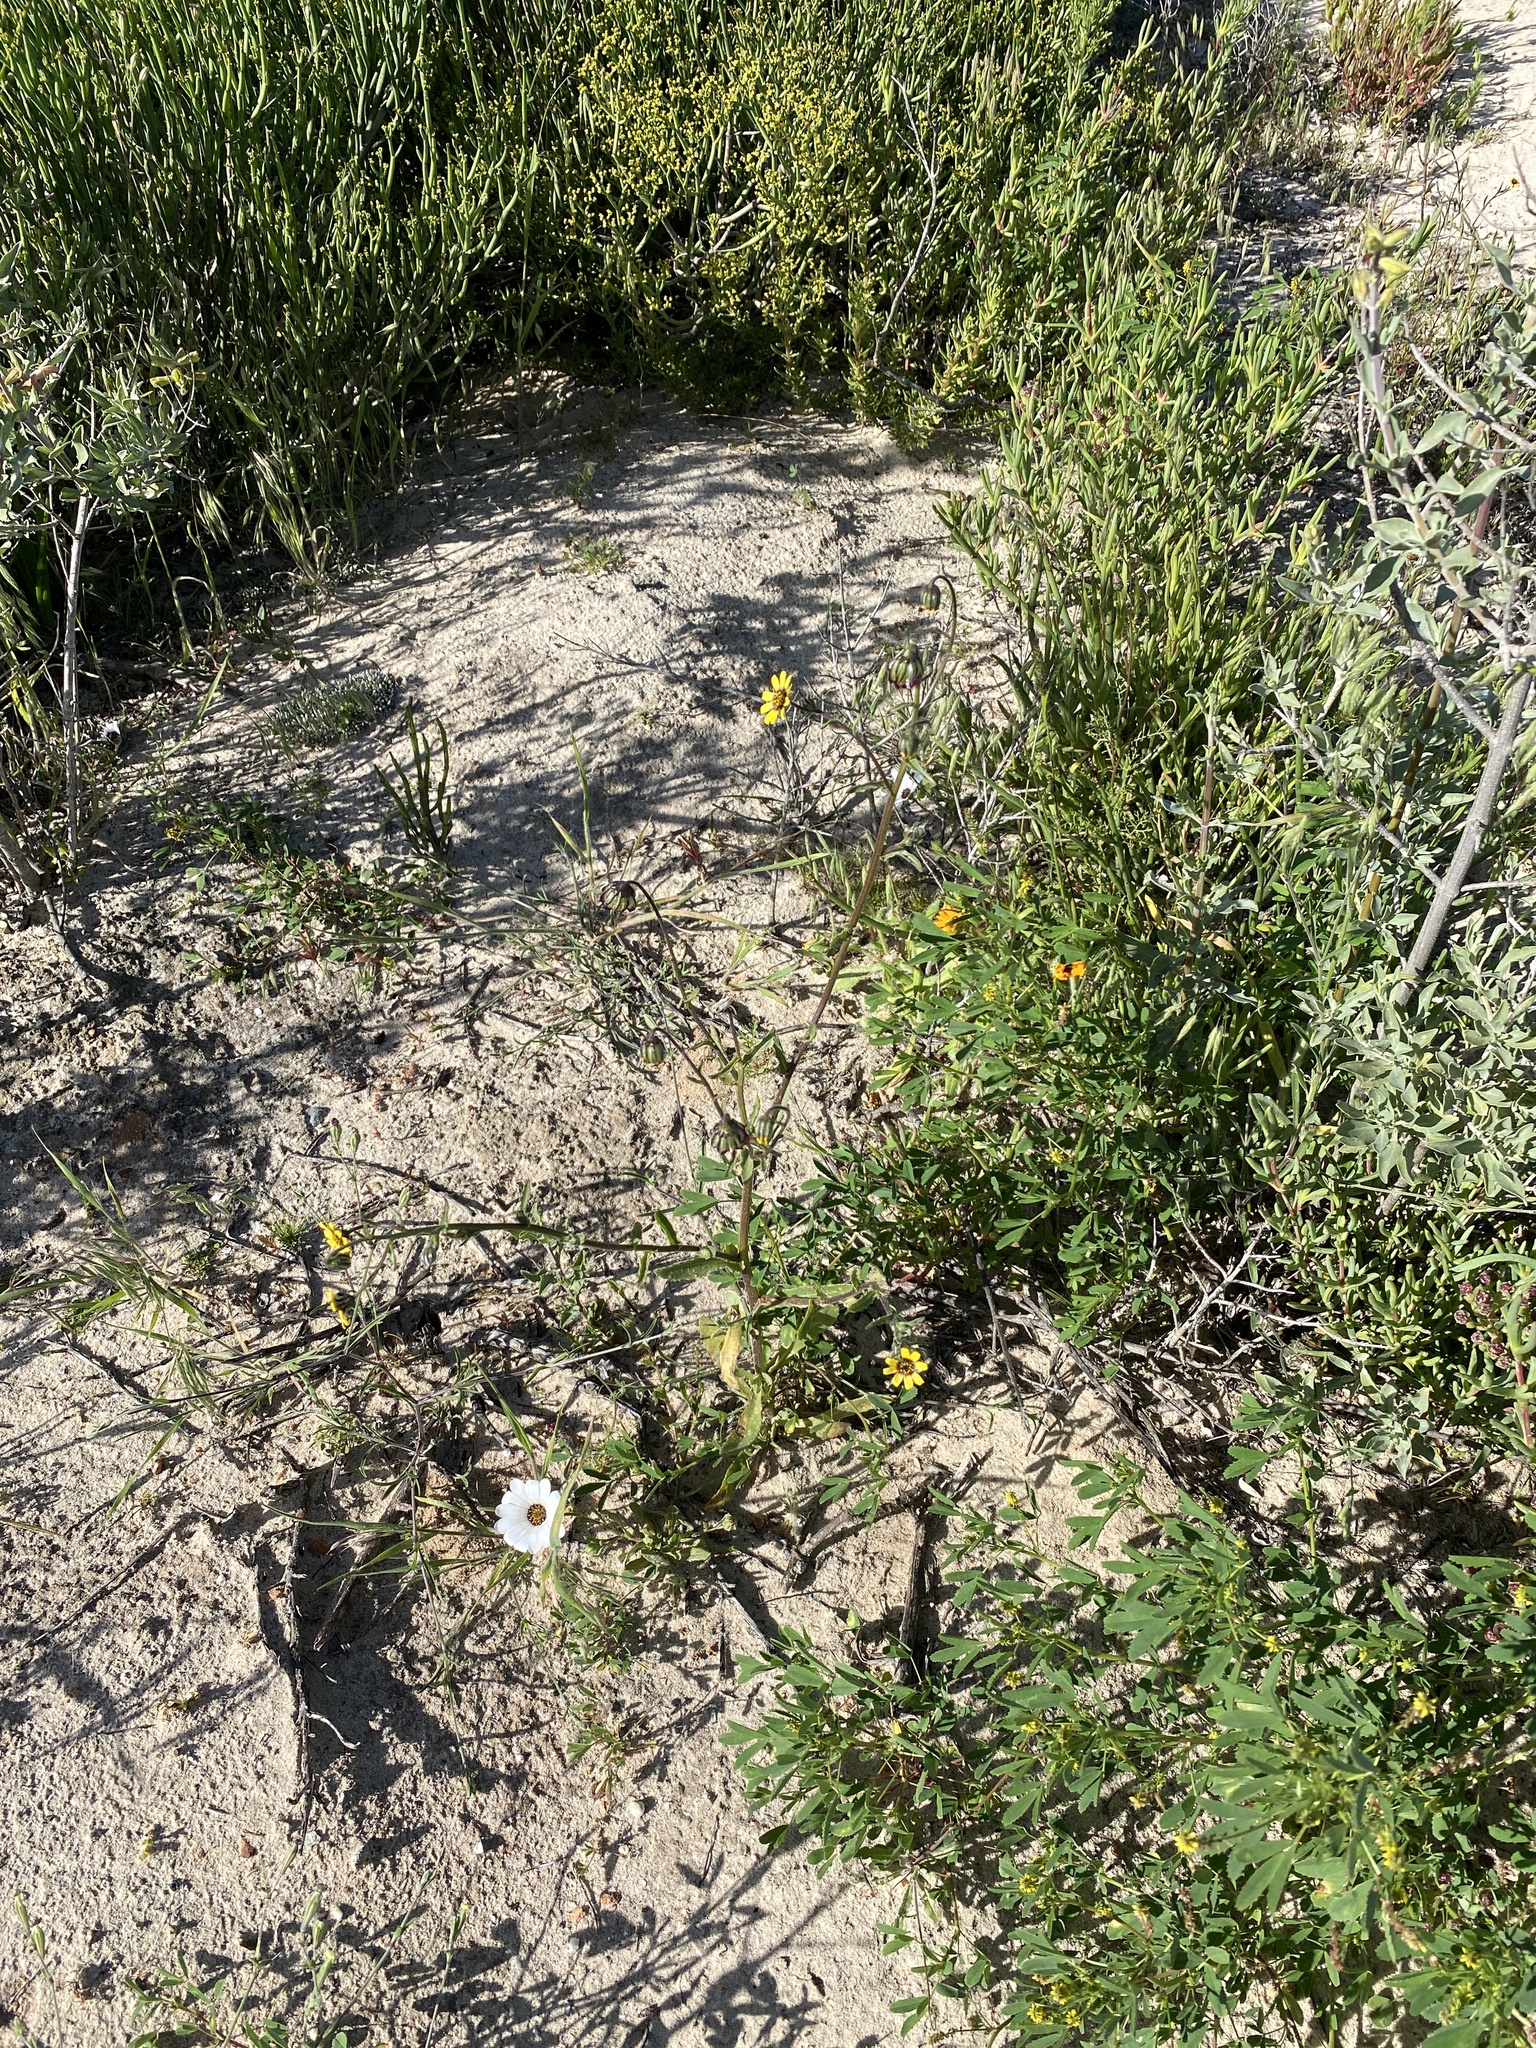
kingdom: Plantae
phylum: Tracheophyta
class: Magnoliopsida
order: Asterales
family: Asteraceae
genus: Osteospermum
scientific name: Osteospermum monstrosum
